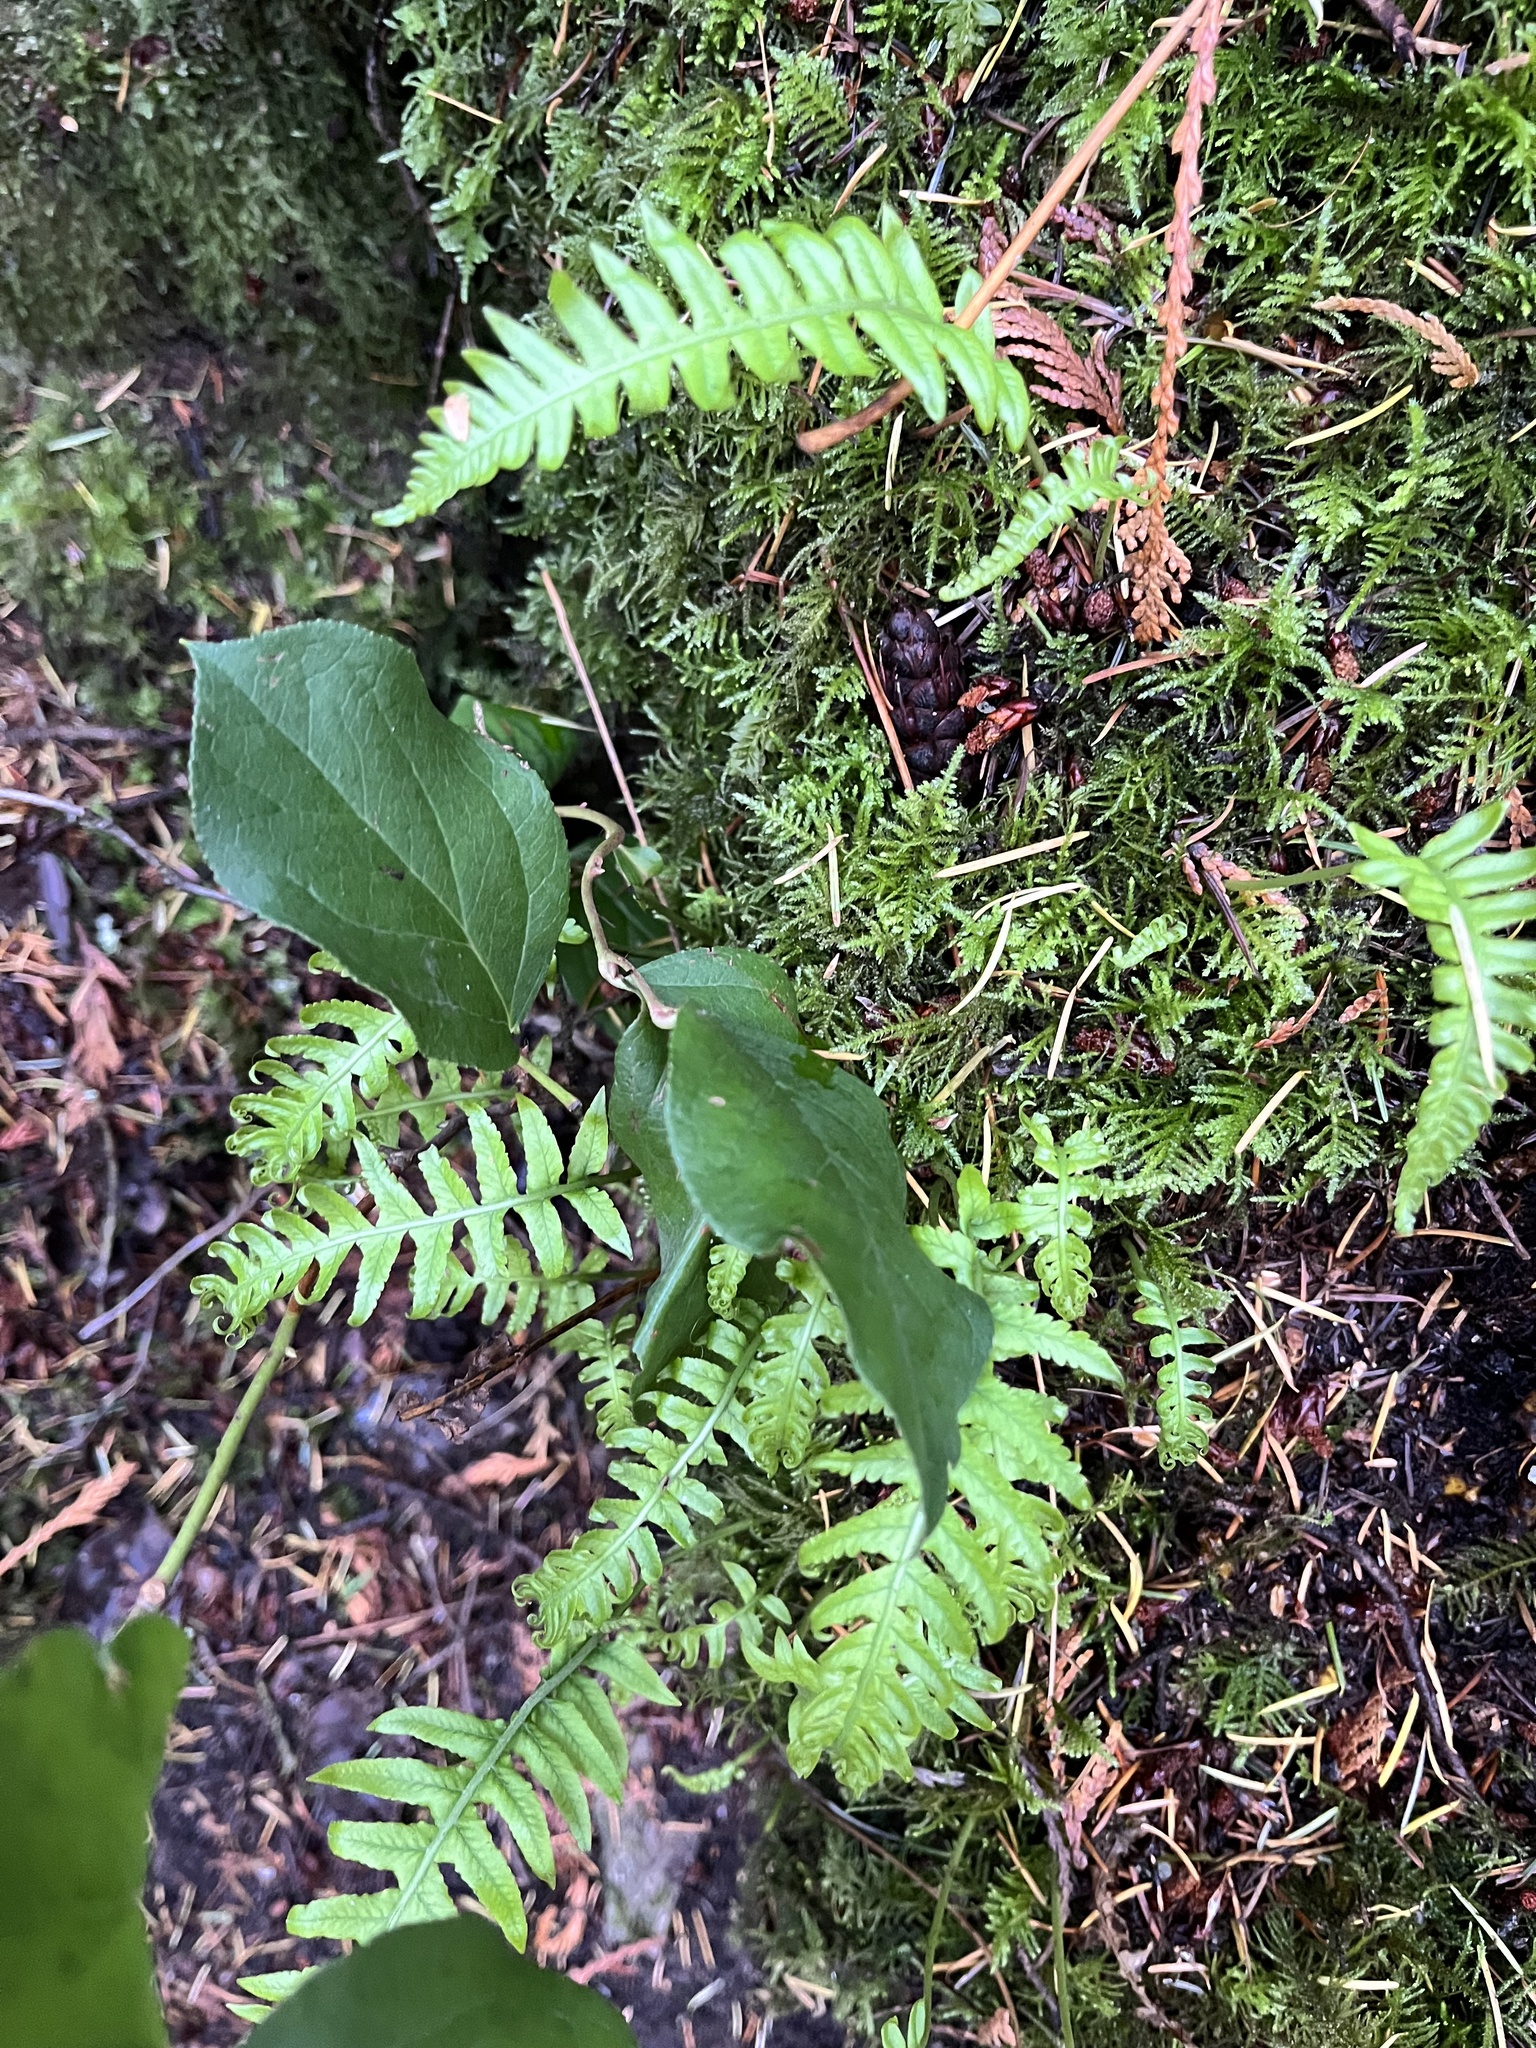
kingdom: Plantae
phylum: Tracheophyta
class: Polypodiopsida
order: Polypodiales
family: Polypodiaceae
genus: Polypodium
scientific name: Polypodium glycyrrhiza
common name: Licorice fern
